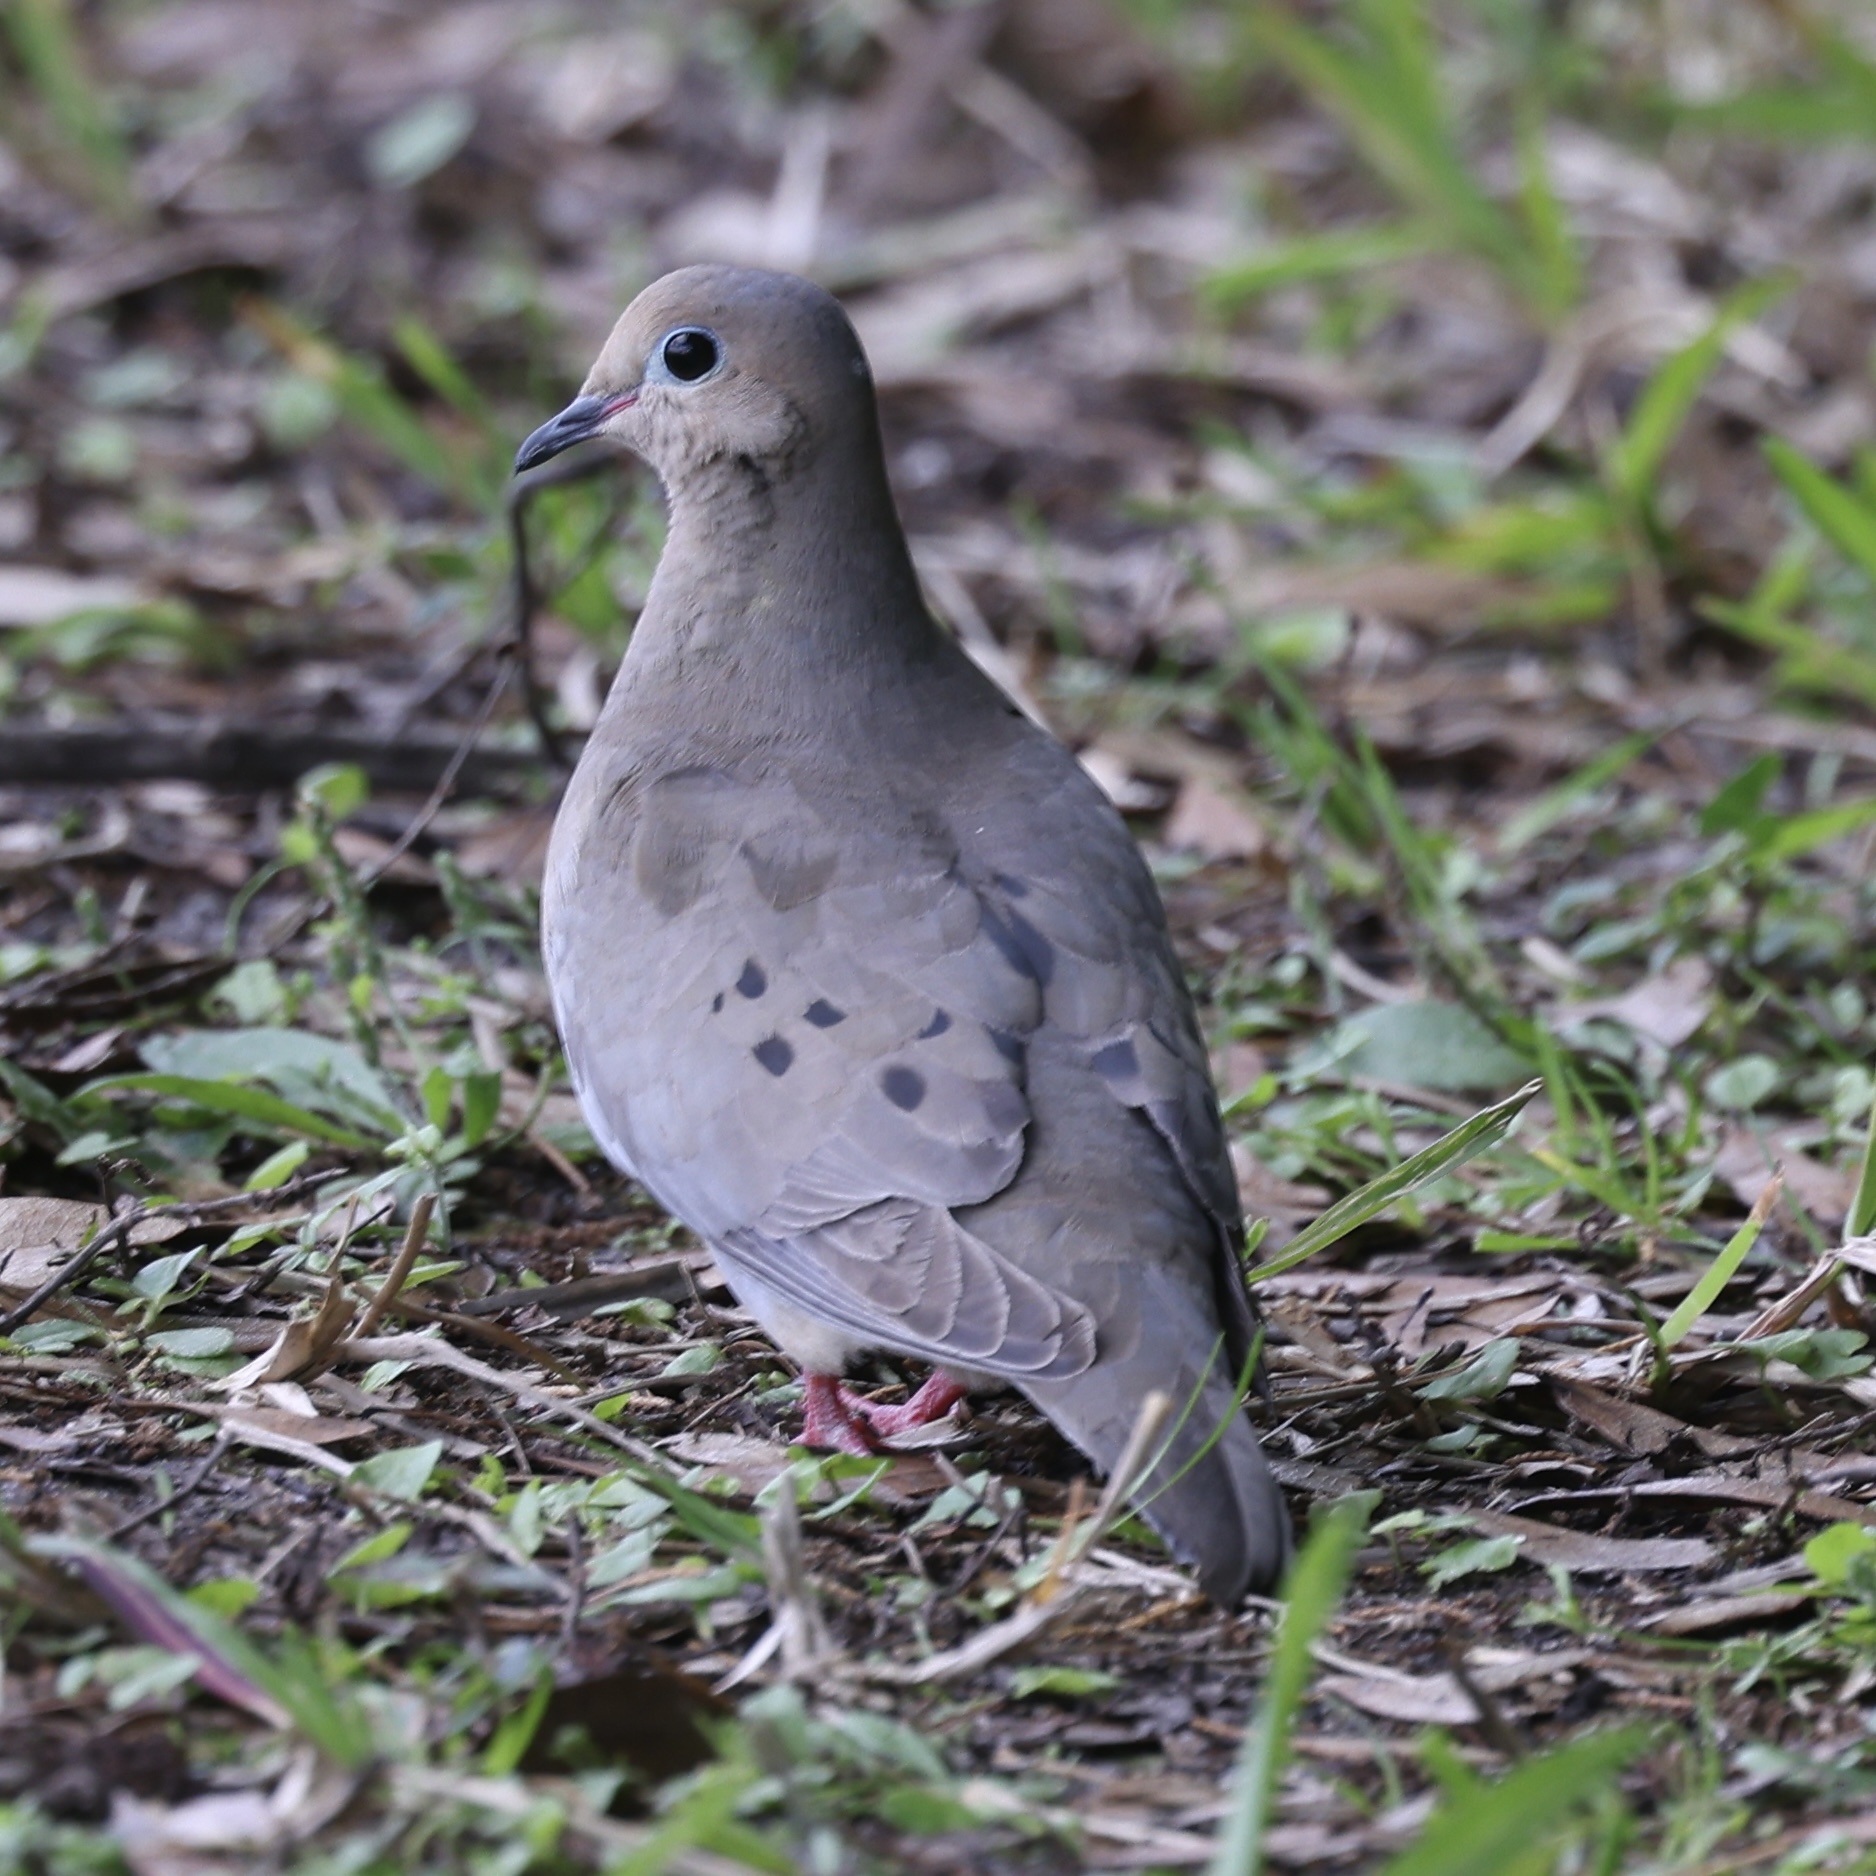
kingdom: Animalia
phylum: Chordata
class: Aves
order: Columbiformes
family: Columbidae
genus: Zenaida
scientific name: Zenaida macroura
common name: Mourning dove
